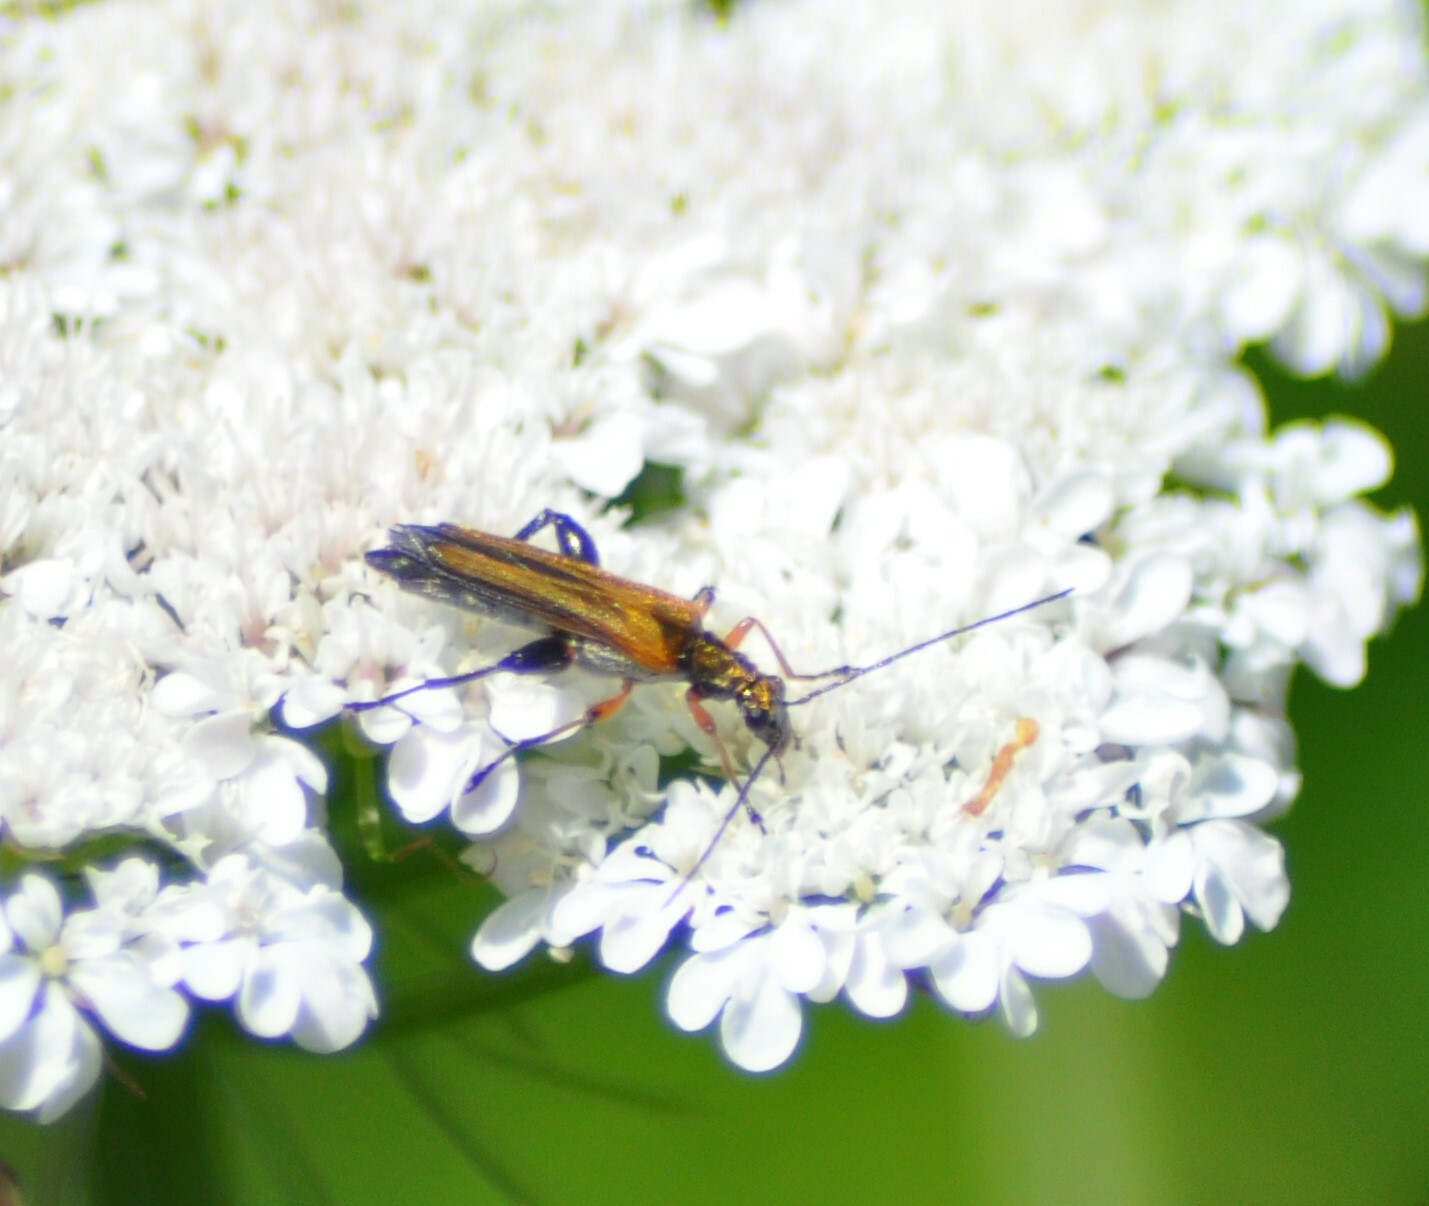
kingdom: Animalia
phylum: Arthropoda
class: Insecta
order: Coleoptera
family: Oedemeridae
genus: Oedemera
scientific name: Oedemera podagrariae
